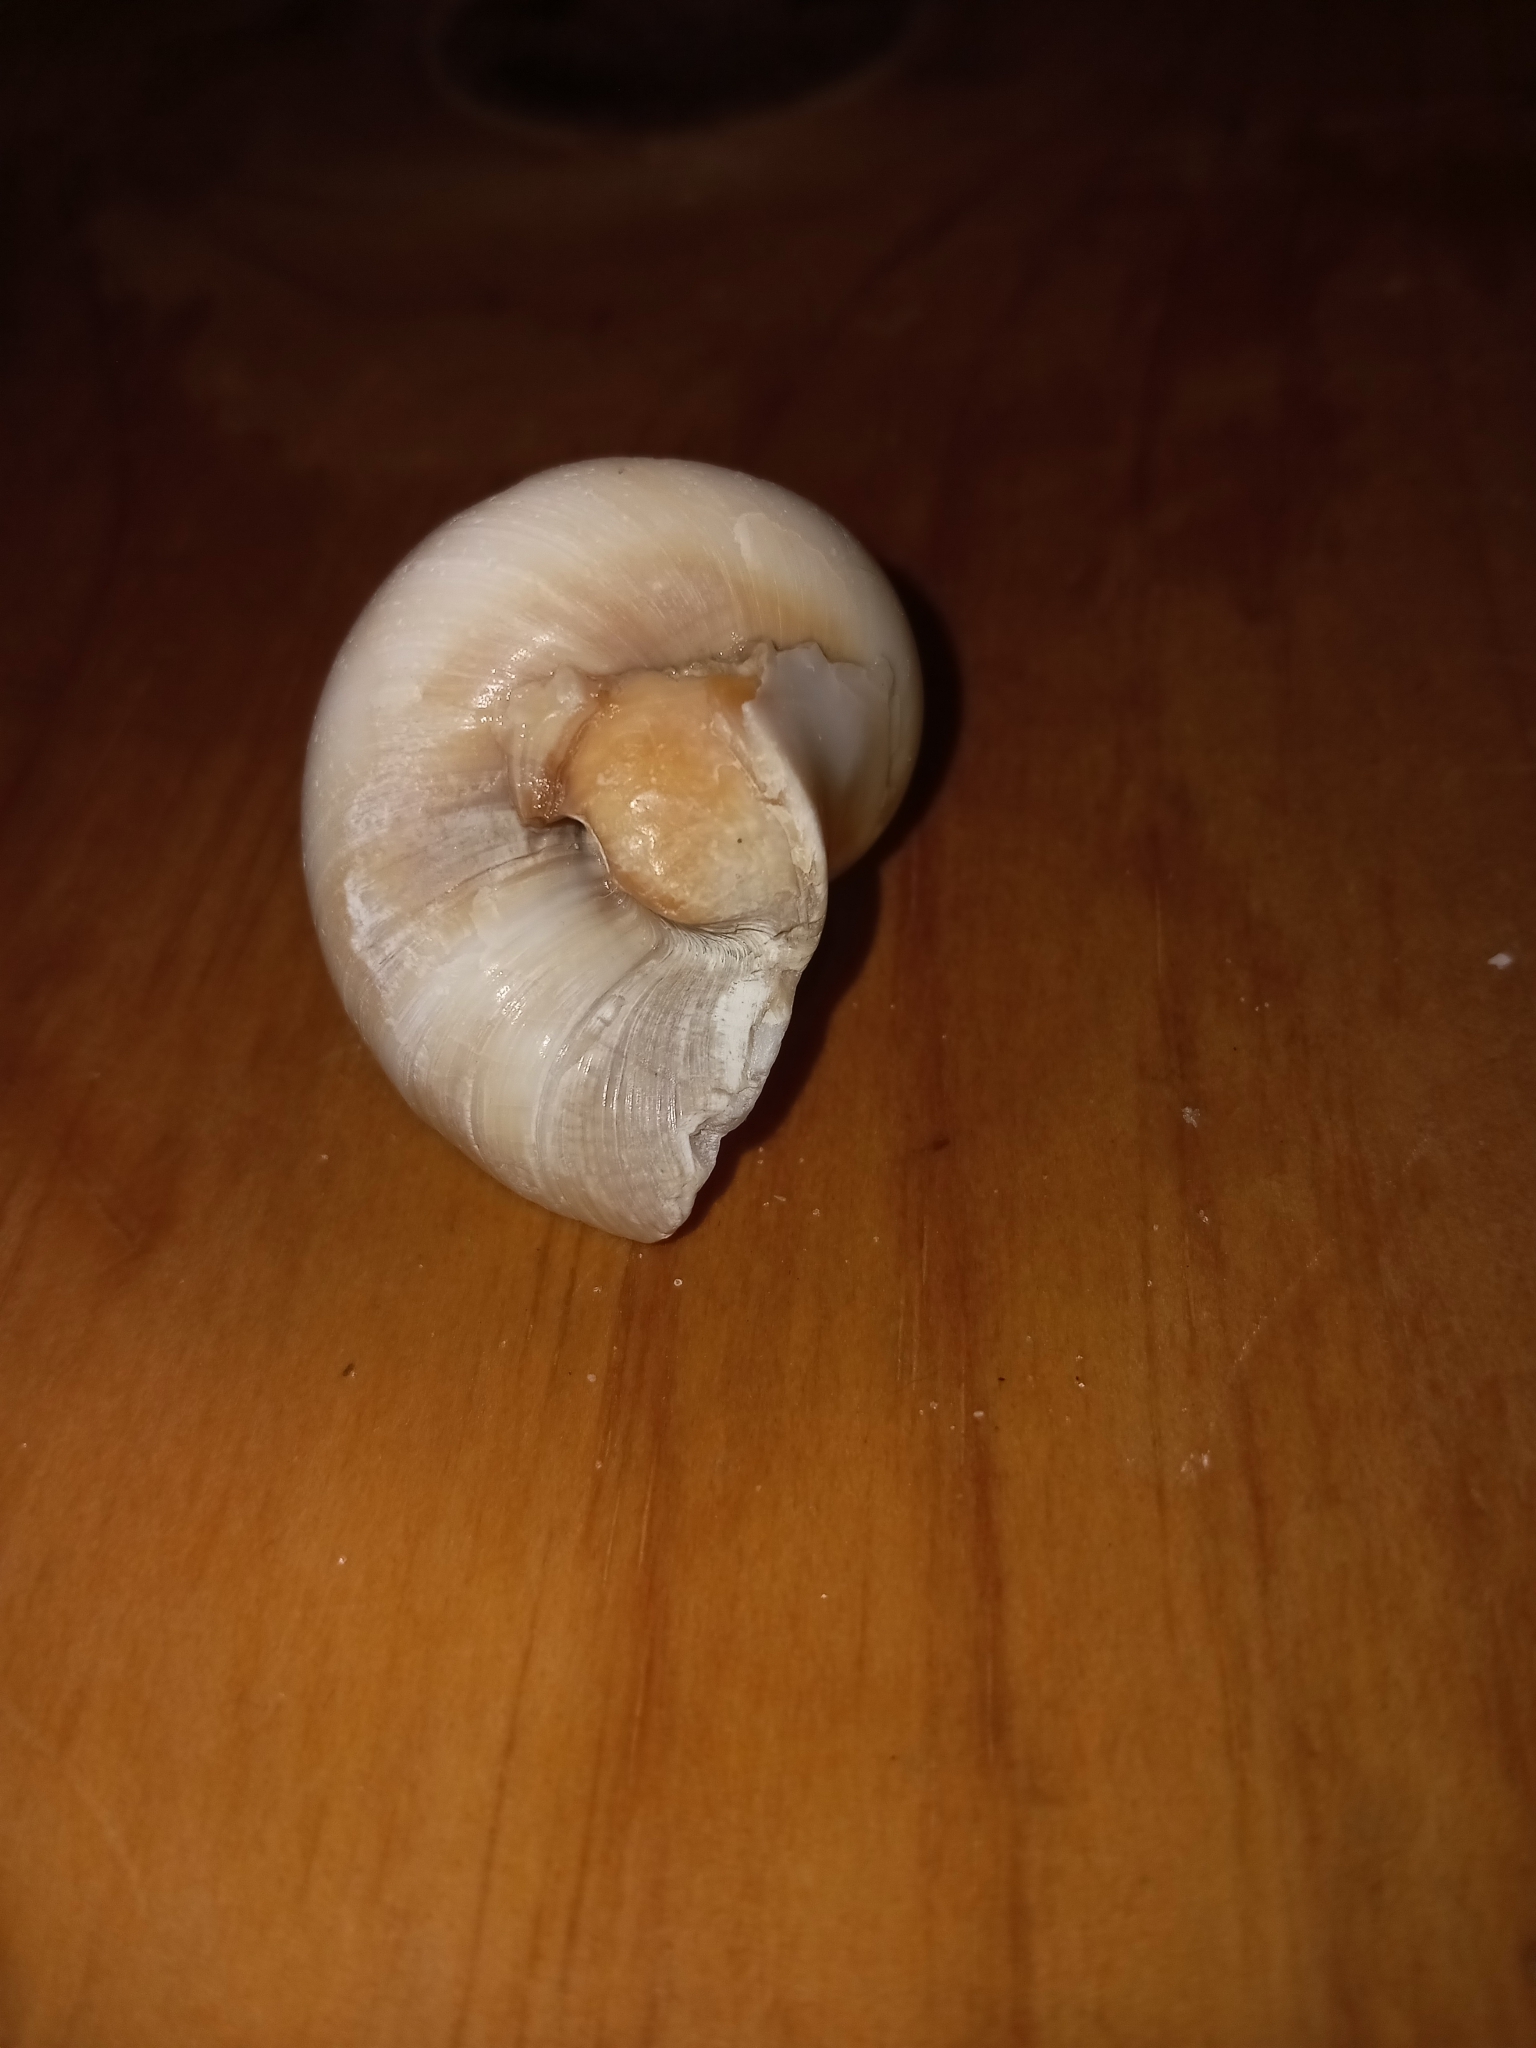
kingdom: Animalia
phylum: Mollusca
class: Gastropoda
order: Littorinimorpha
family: Naticidae
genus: Neverita
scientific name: Neverita duplicata
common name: Lobed moonsnail
